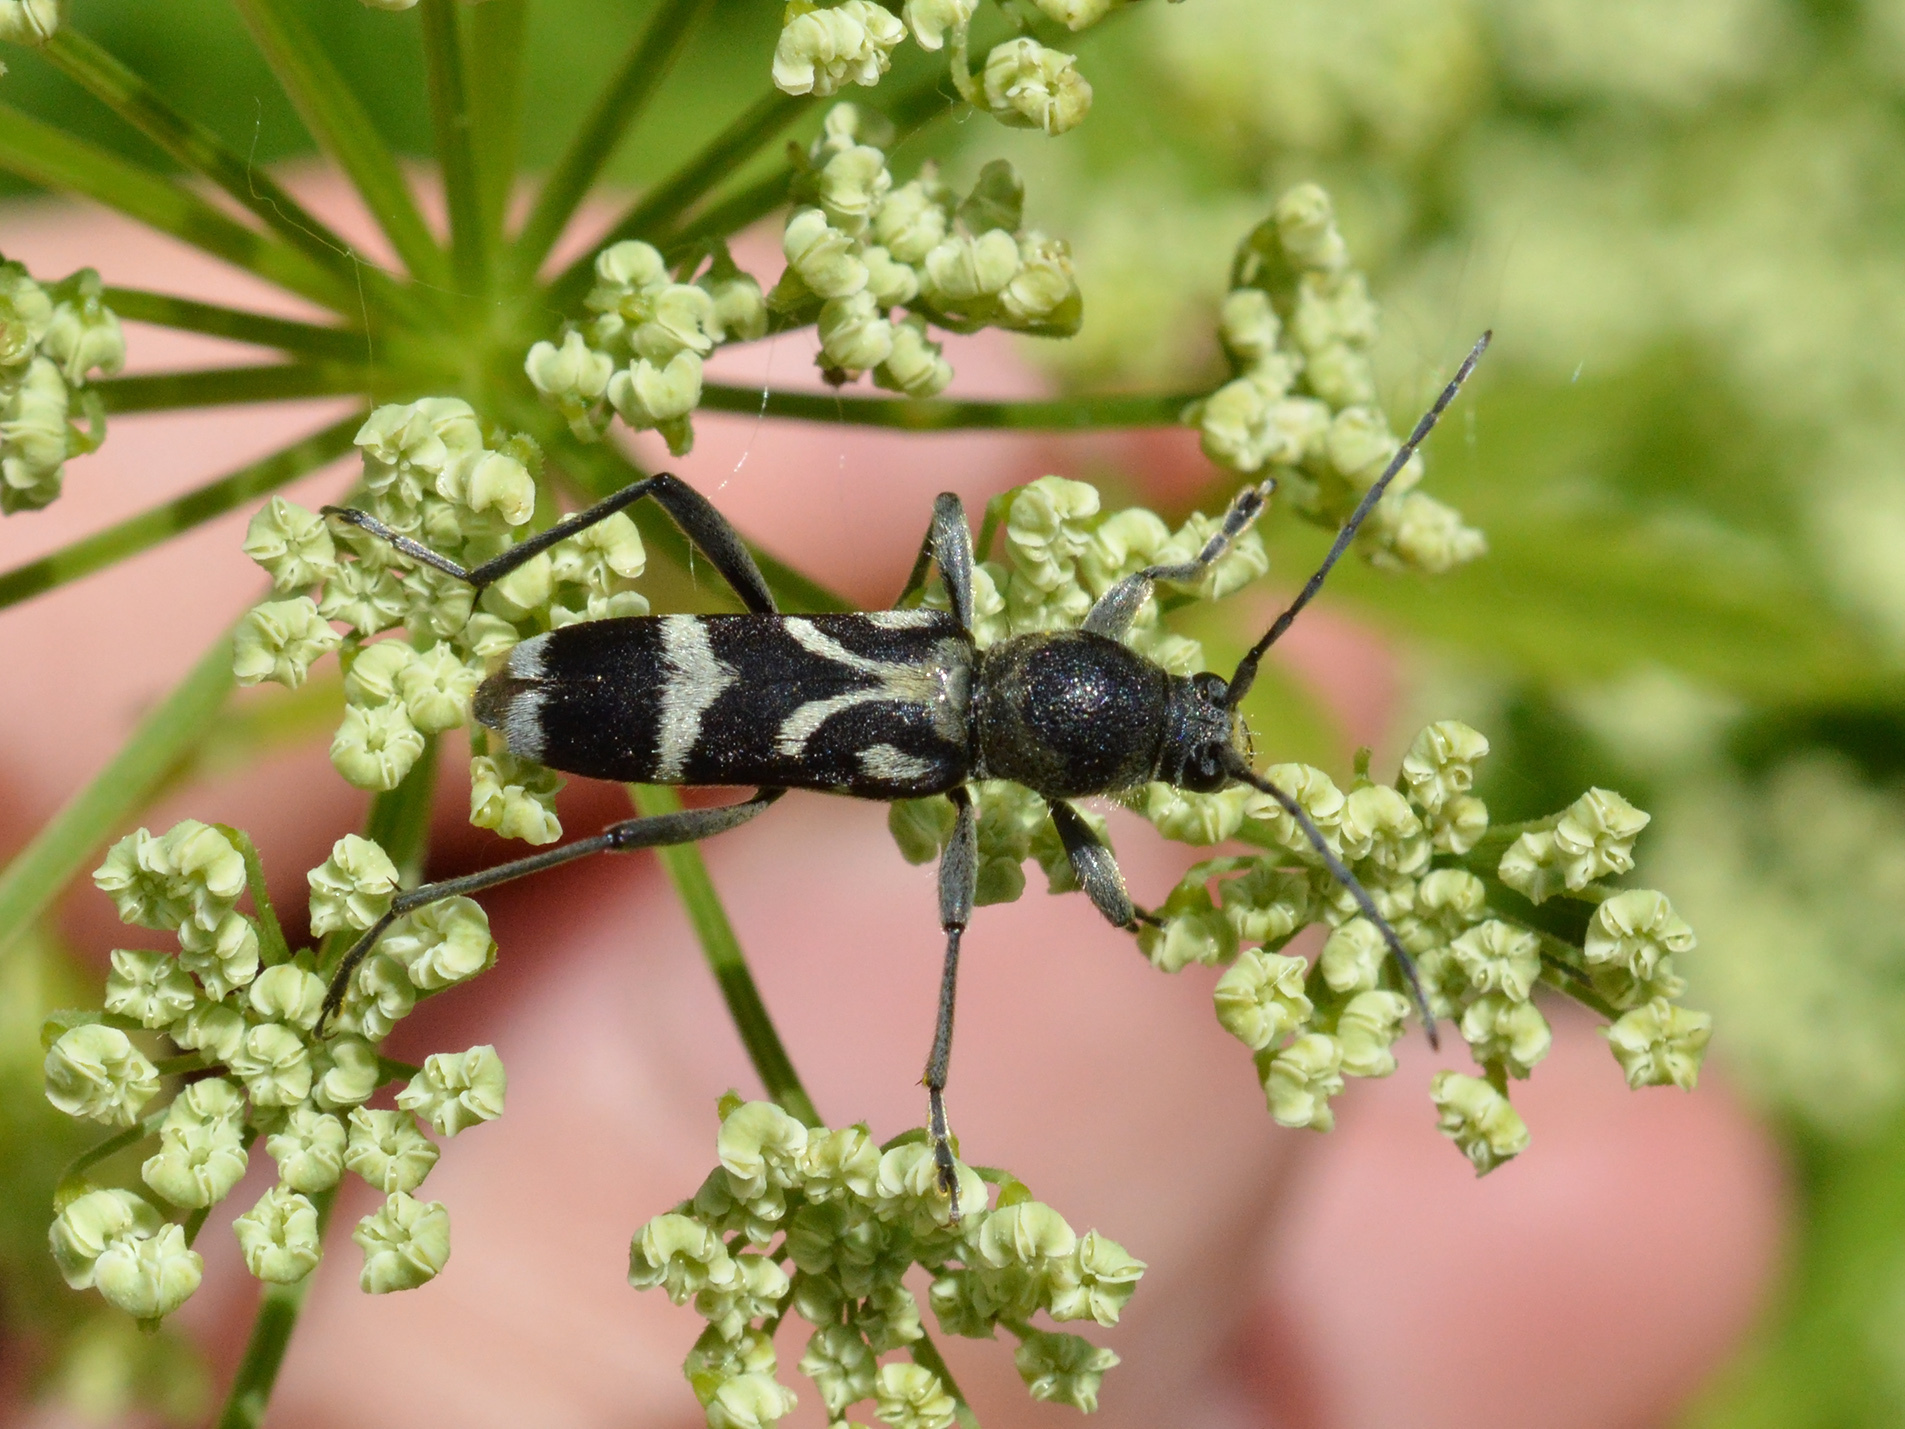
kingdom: Animalia
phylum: Arthropoda
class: Insecta
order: Coleoptera
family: Cerambycidae
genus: Chlorophorus
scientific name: Chlorophorus figuratus
